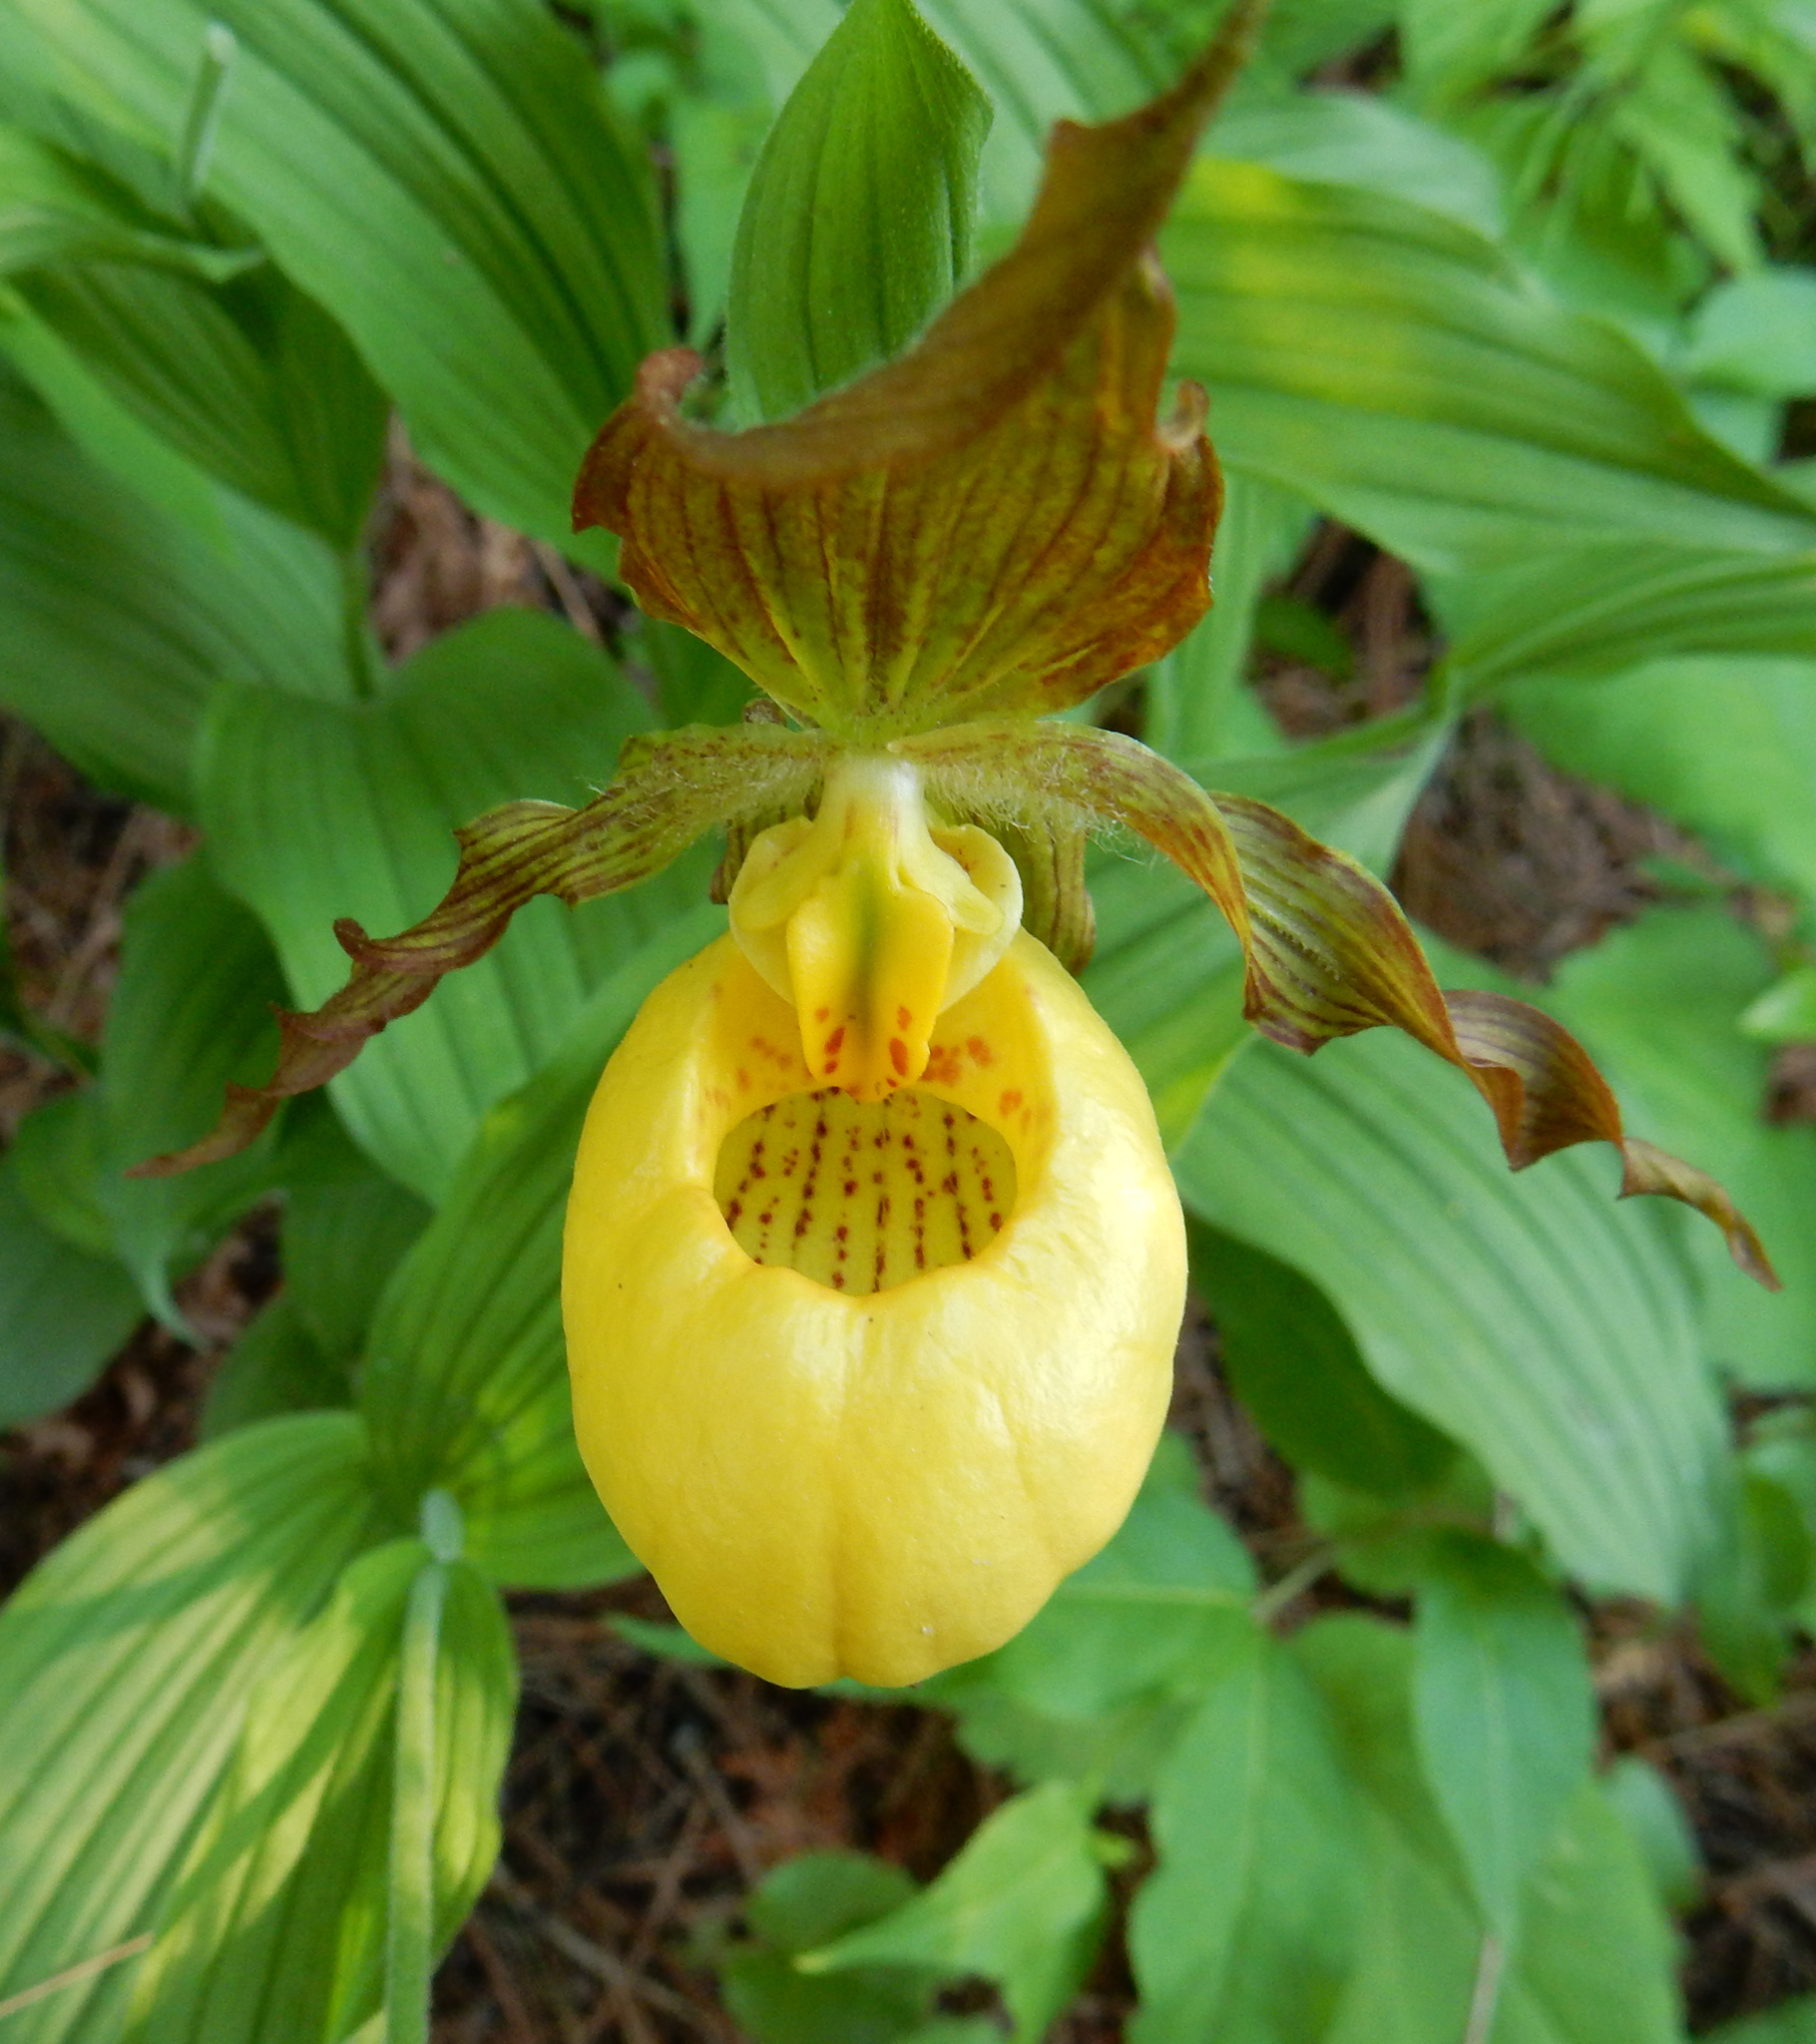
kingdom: Plantae
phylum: Tracheophyta
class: Liliopsida
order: Asparagales
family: Orchidaceae
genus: Cypripedium
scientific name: Cypripedium parviflorum
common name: American yellow lady's-slipper
